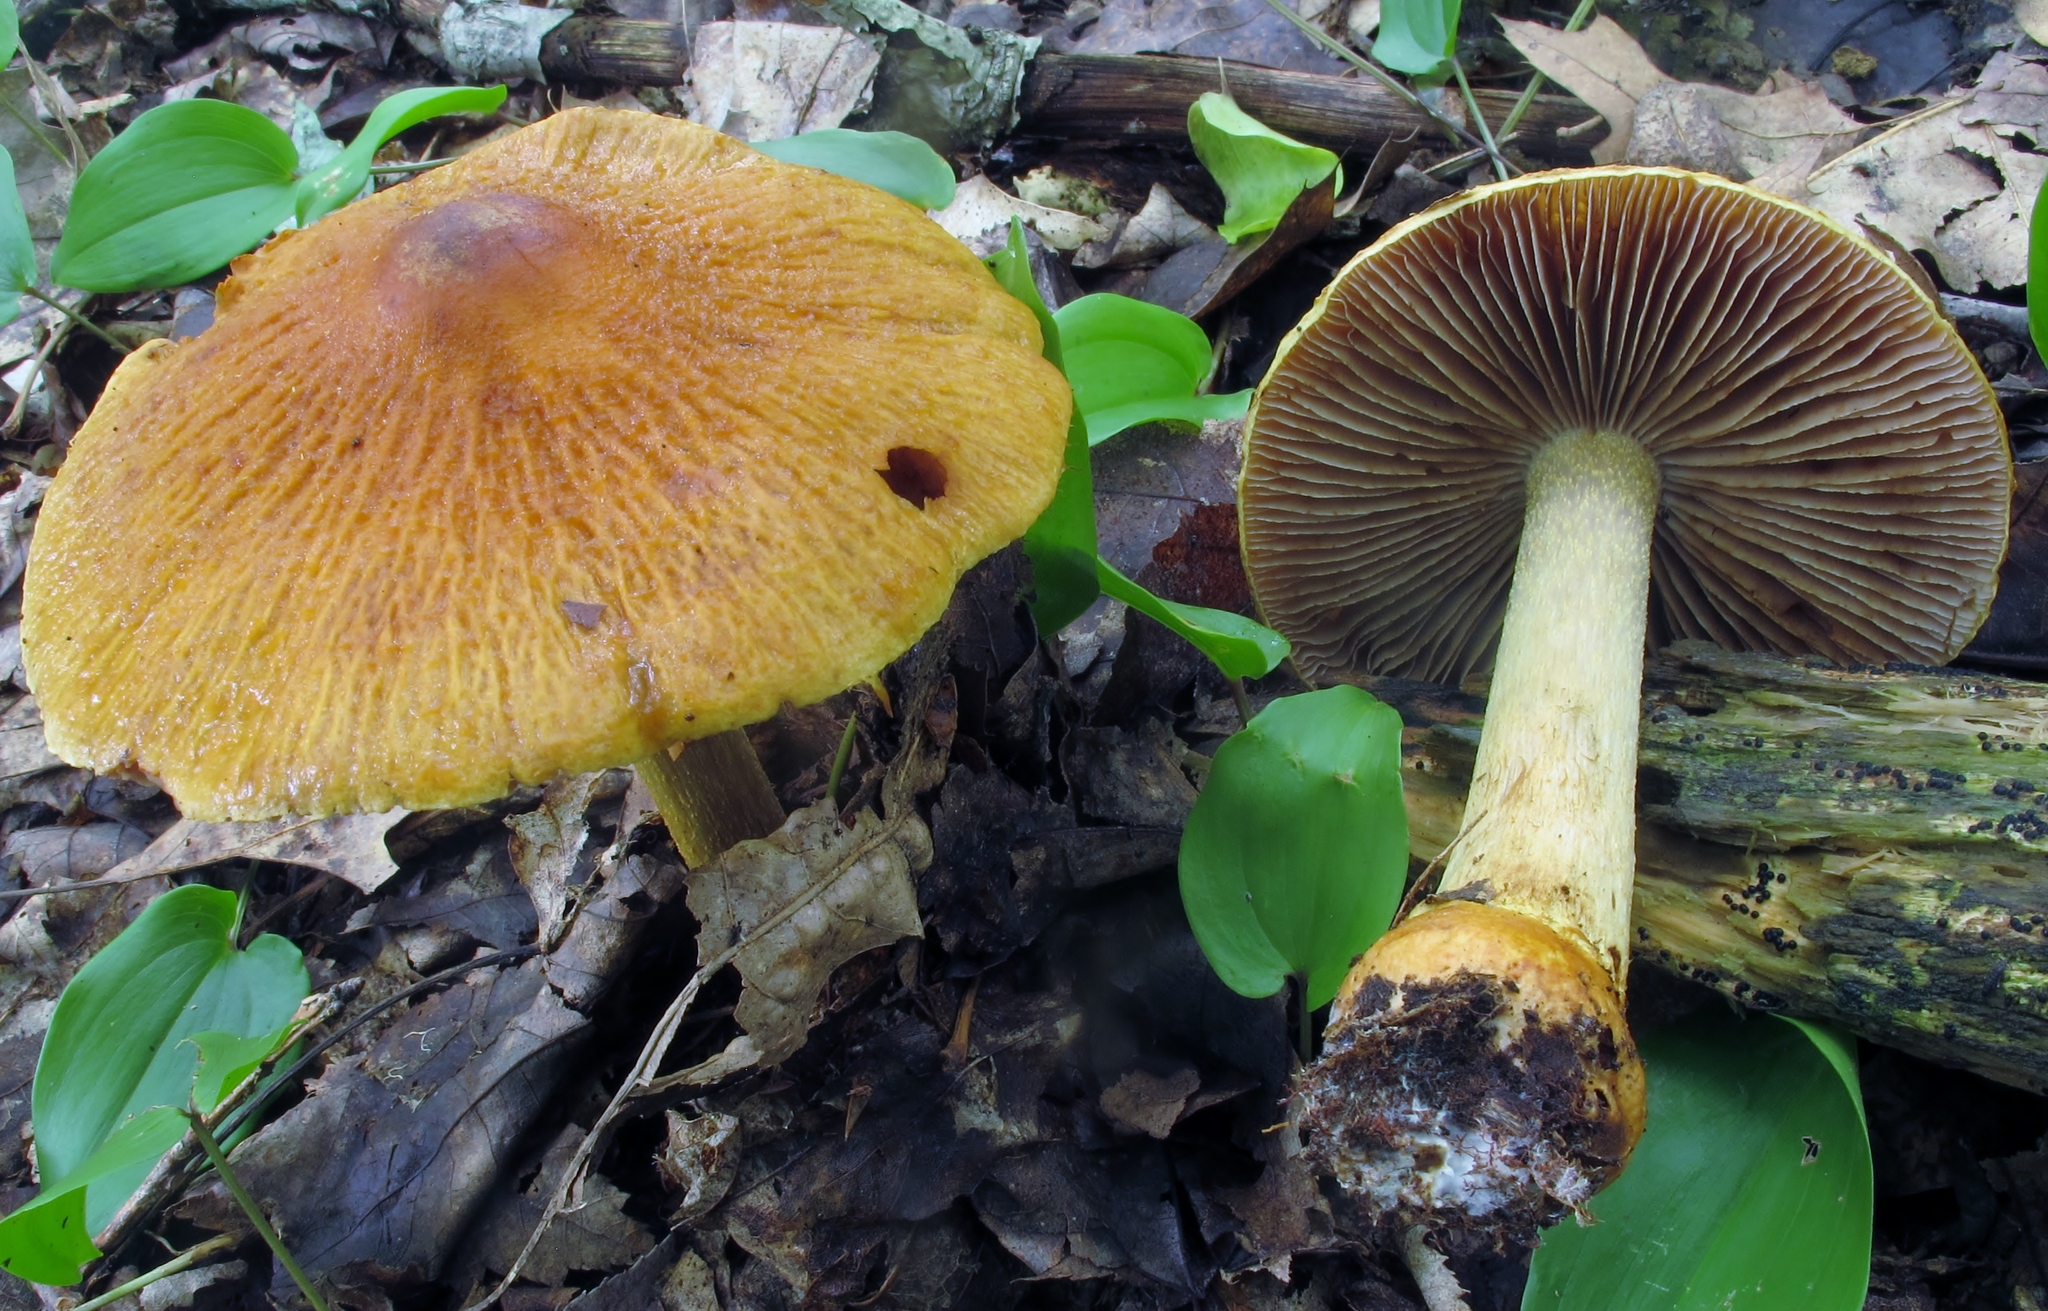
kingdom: Fungi
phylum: Basidiomycota
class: Agaricomycetes
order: Agaricales
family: Cortinariaceae
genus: Cortinarius
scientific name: Cortinarius corrugatus
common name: Wrinkled cortinarius
